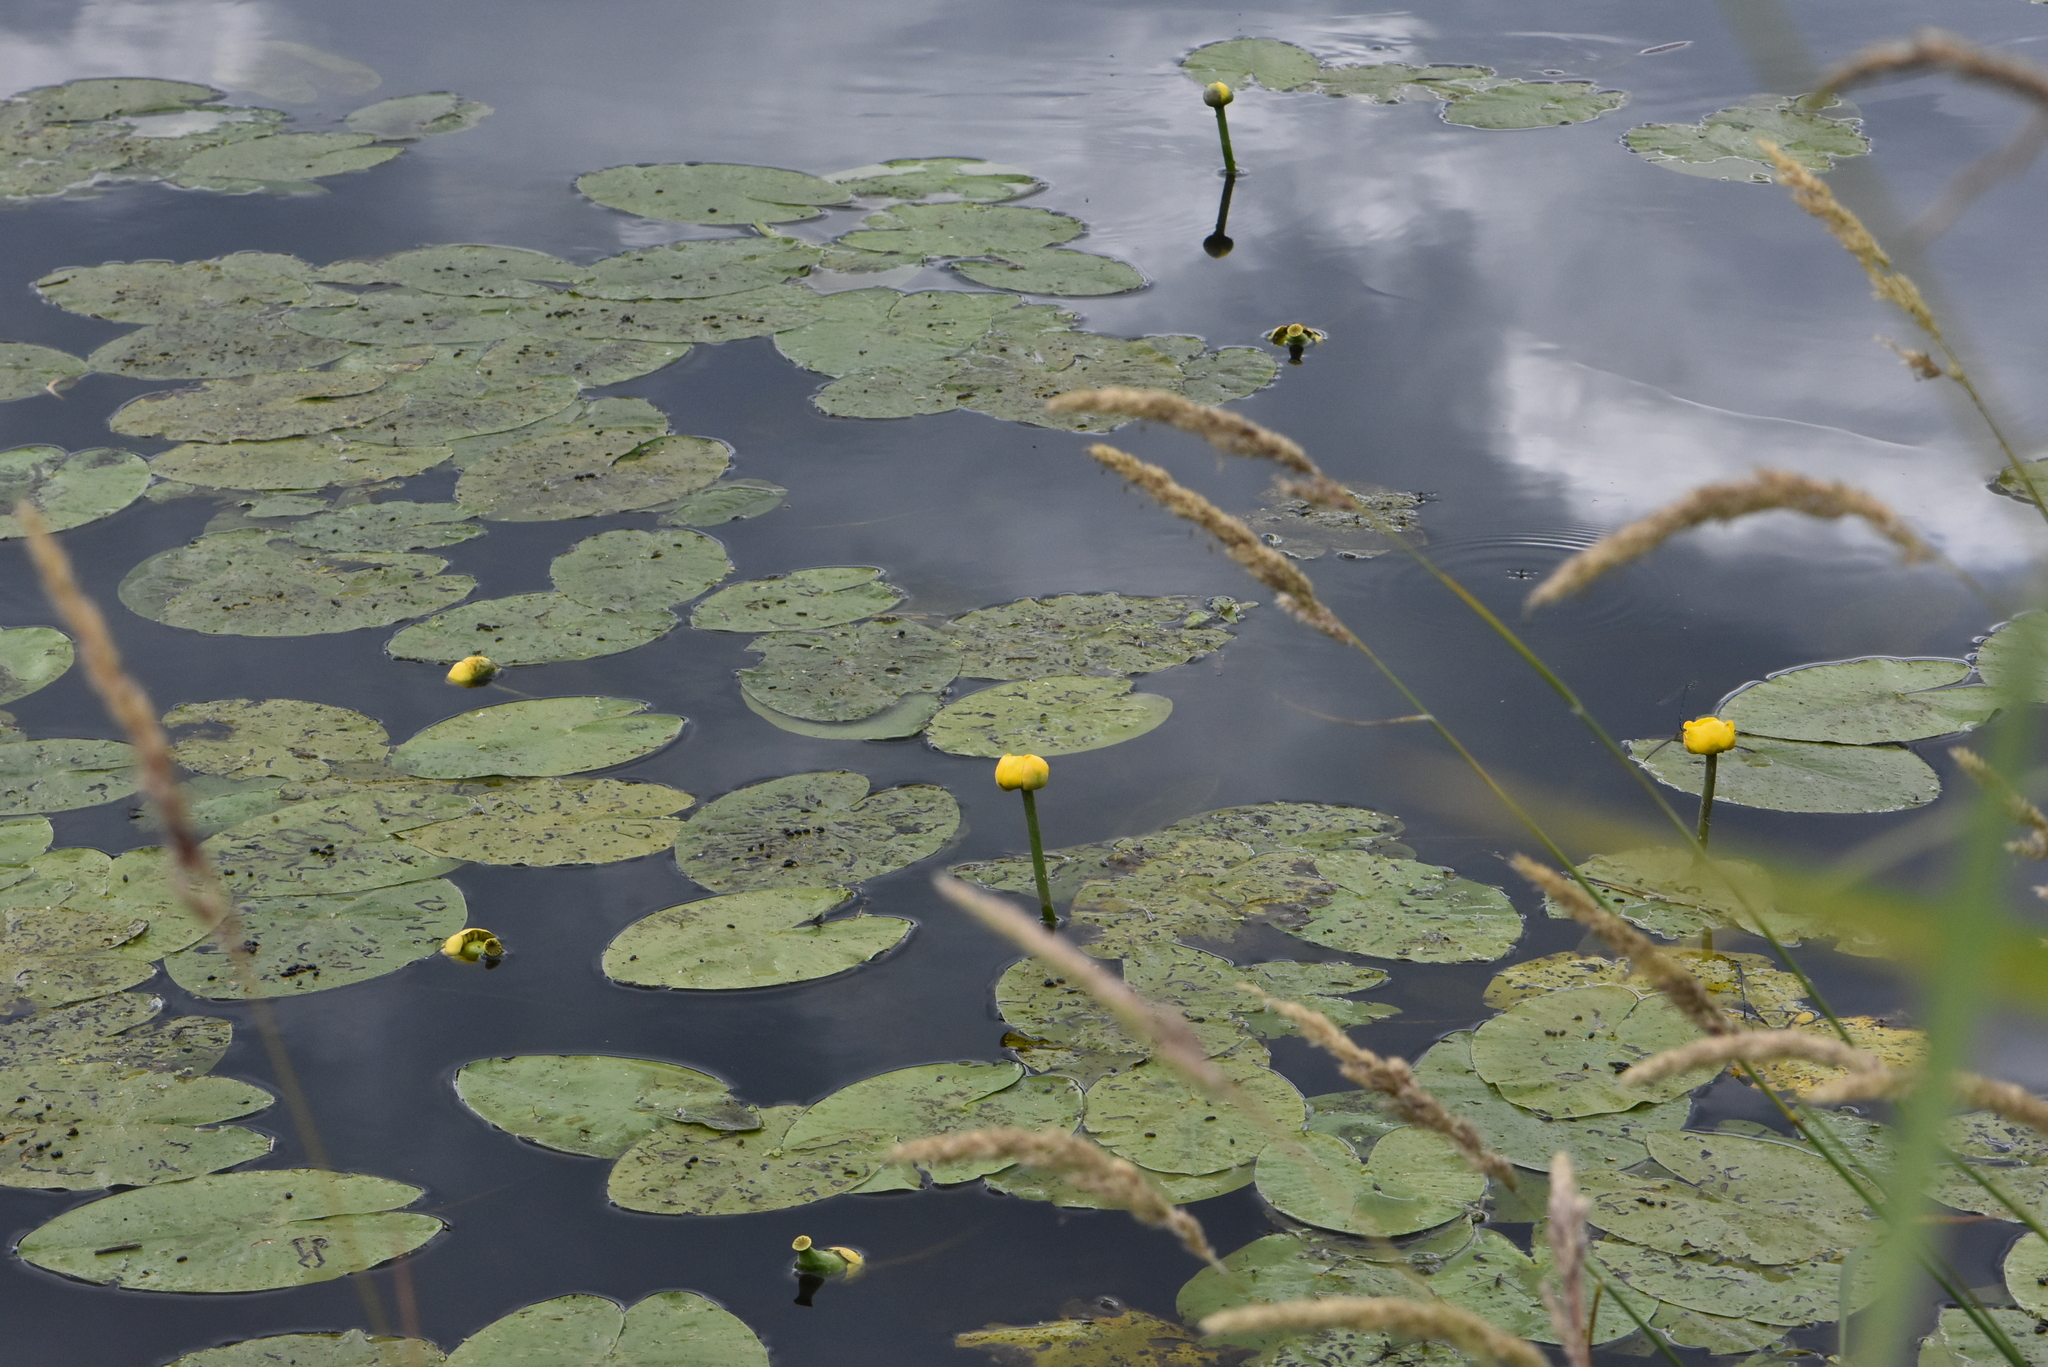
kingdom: Plantae
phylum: Tracheophyta
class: Magnoliopsida
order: Nymphaeales
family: Nymphaeaceae
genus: Nuphar
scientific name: Nuphar lutea
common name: Yellow water-lily
